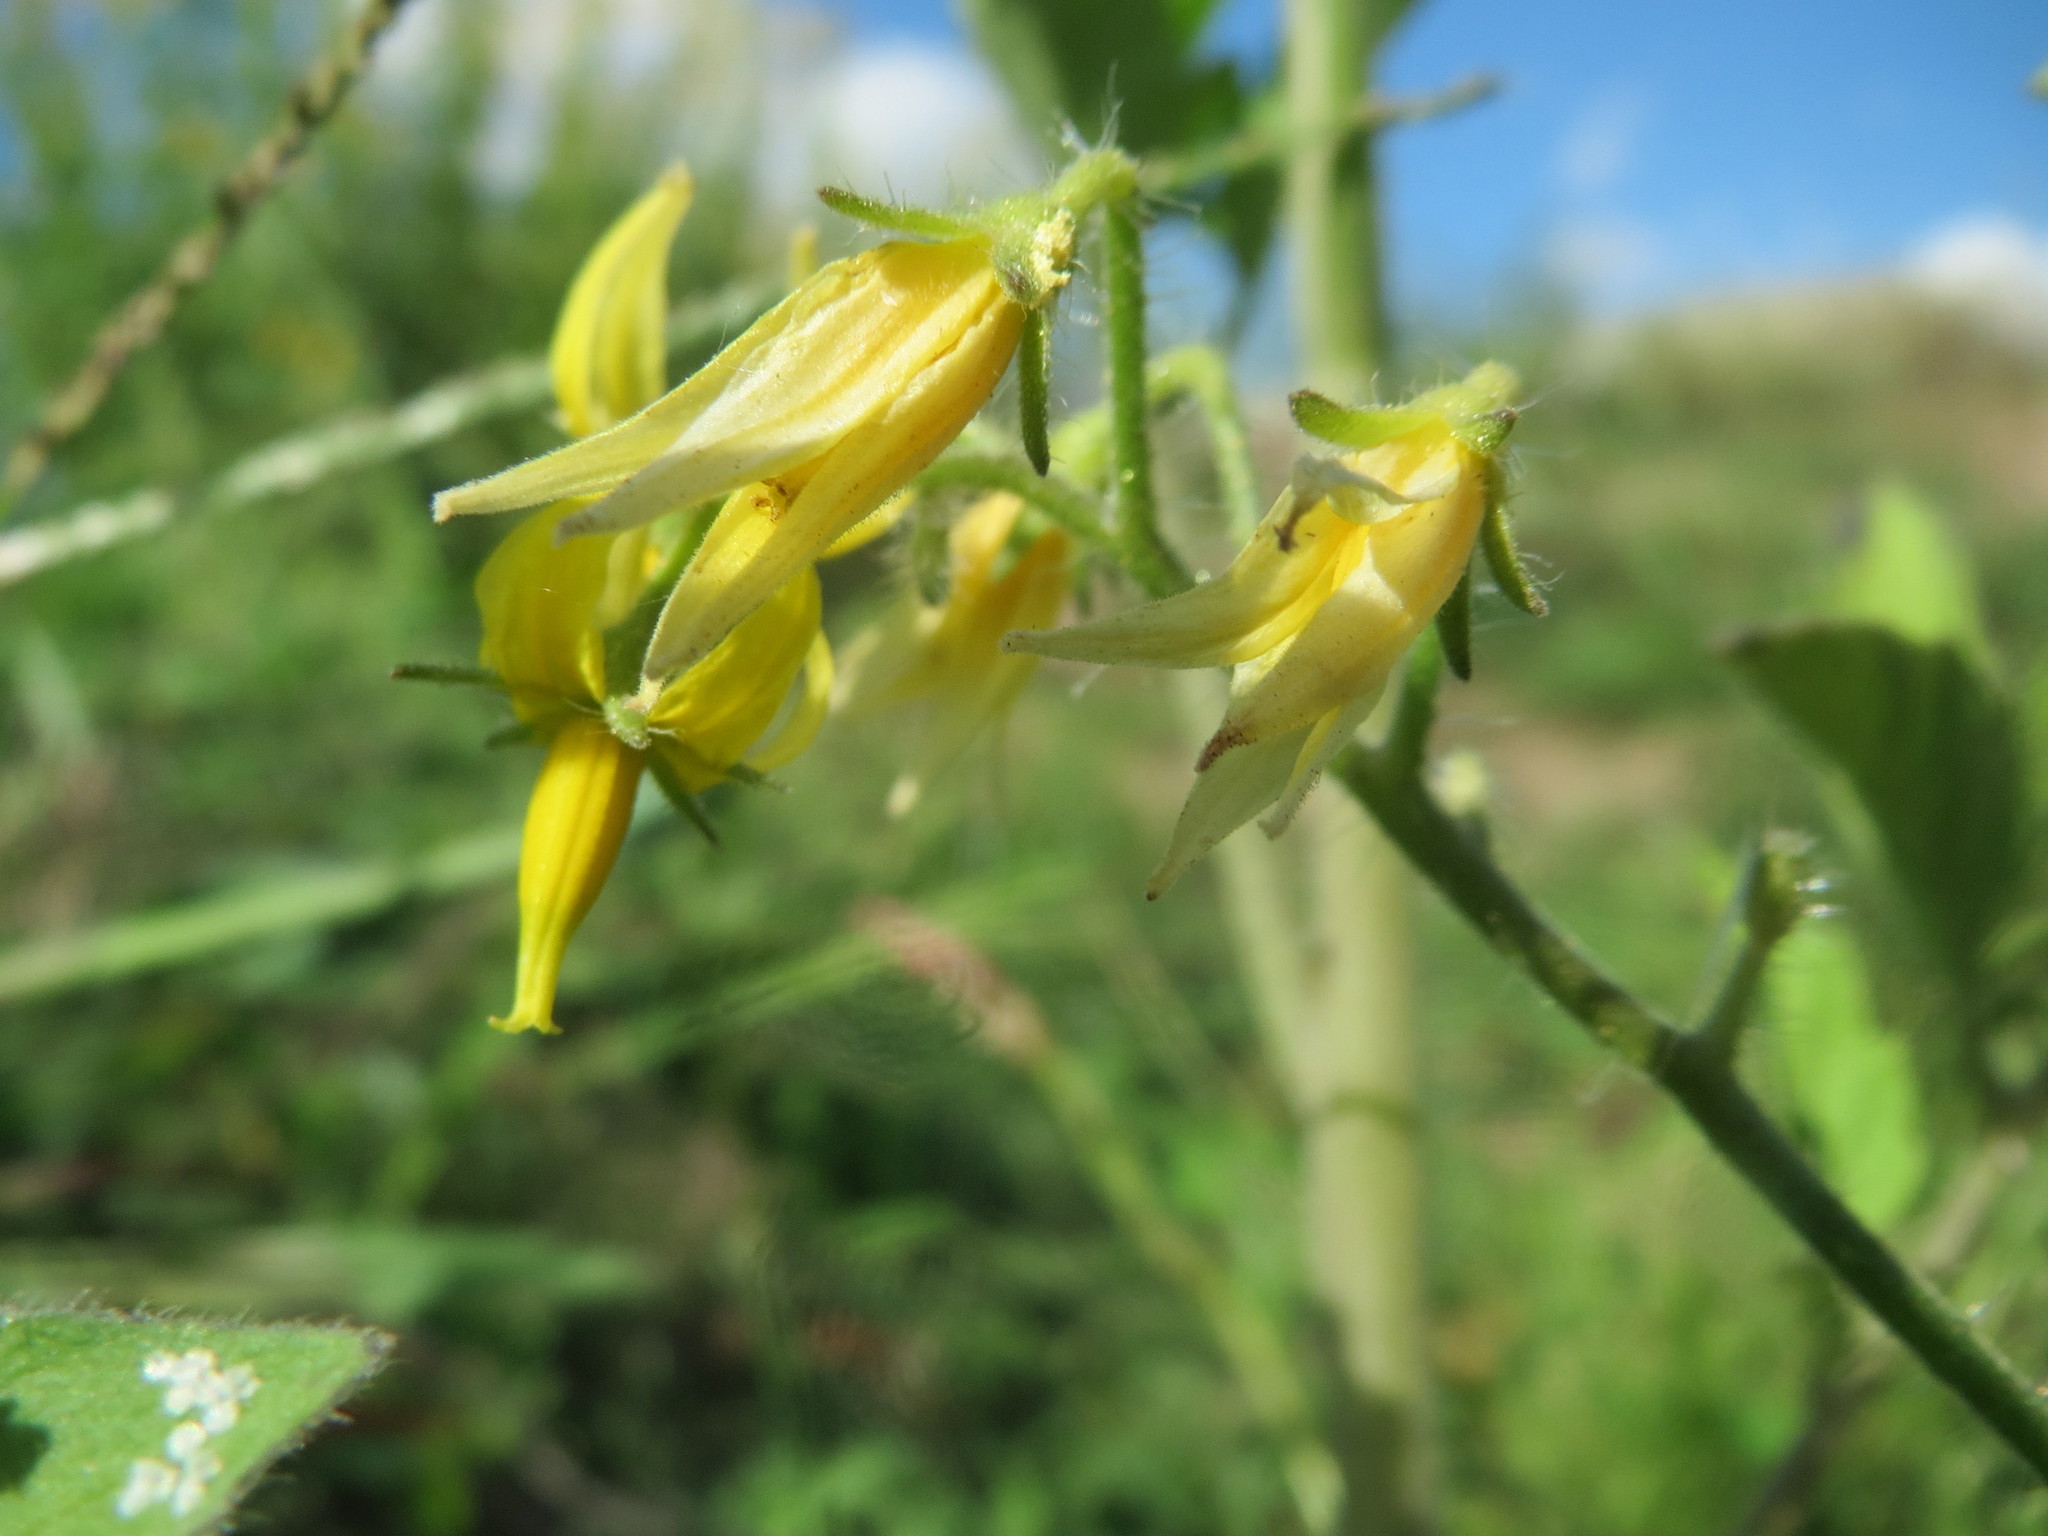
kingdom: Plantae
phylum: Tracheophyta
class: Magnoliopsida
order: Solanales
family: Solanaceae
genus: Solanum
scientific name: Solanum lycopersicum
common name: Garden tomato
